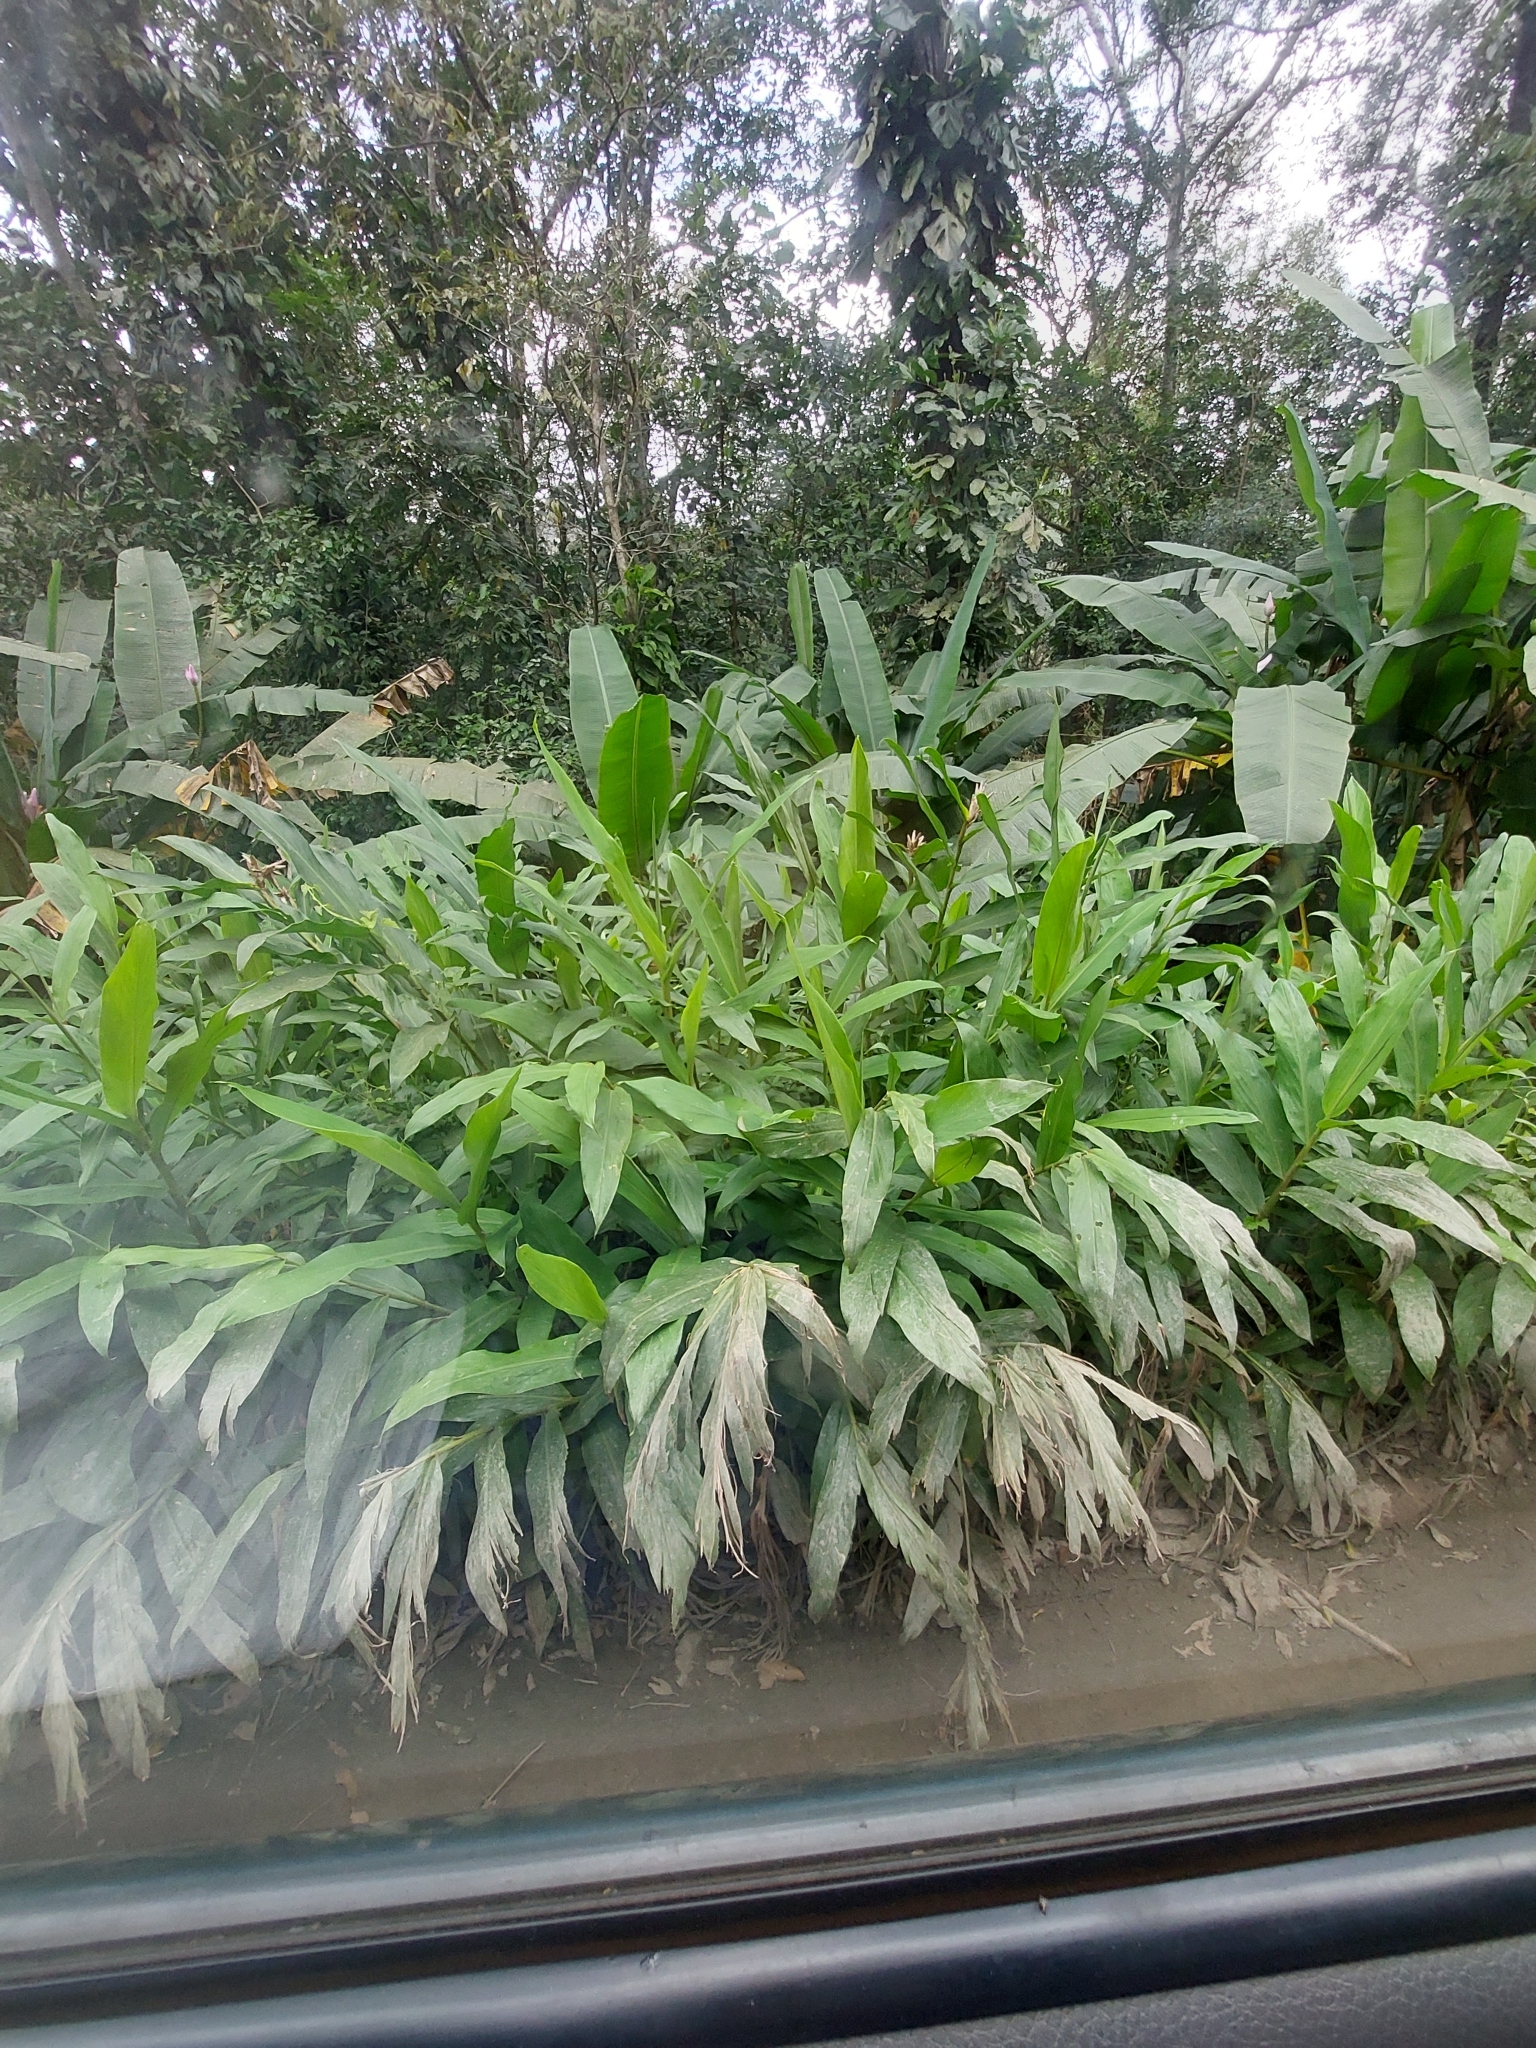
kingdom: Plantae
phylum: Tracheophyta
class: Liliopsida
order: Zingiberales
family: Zingiberaceae
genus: Hedychium
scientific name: Hedychium coronarium
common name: White garland-lily
